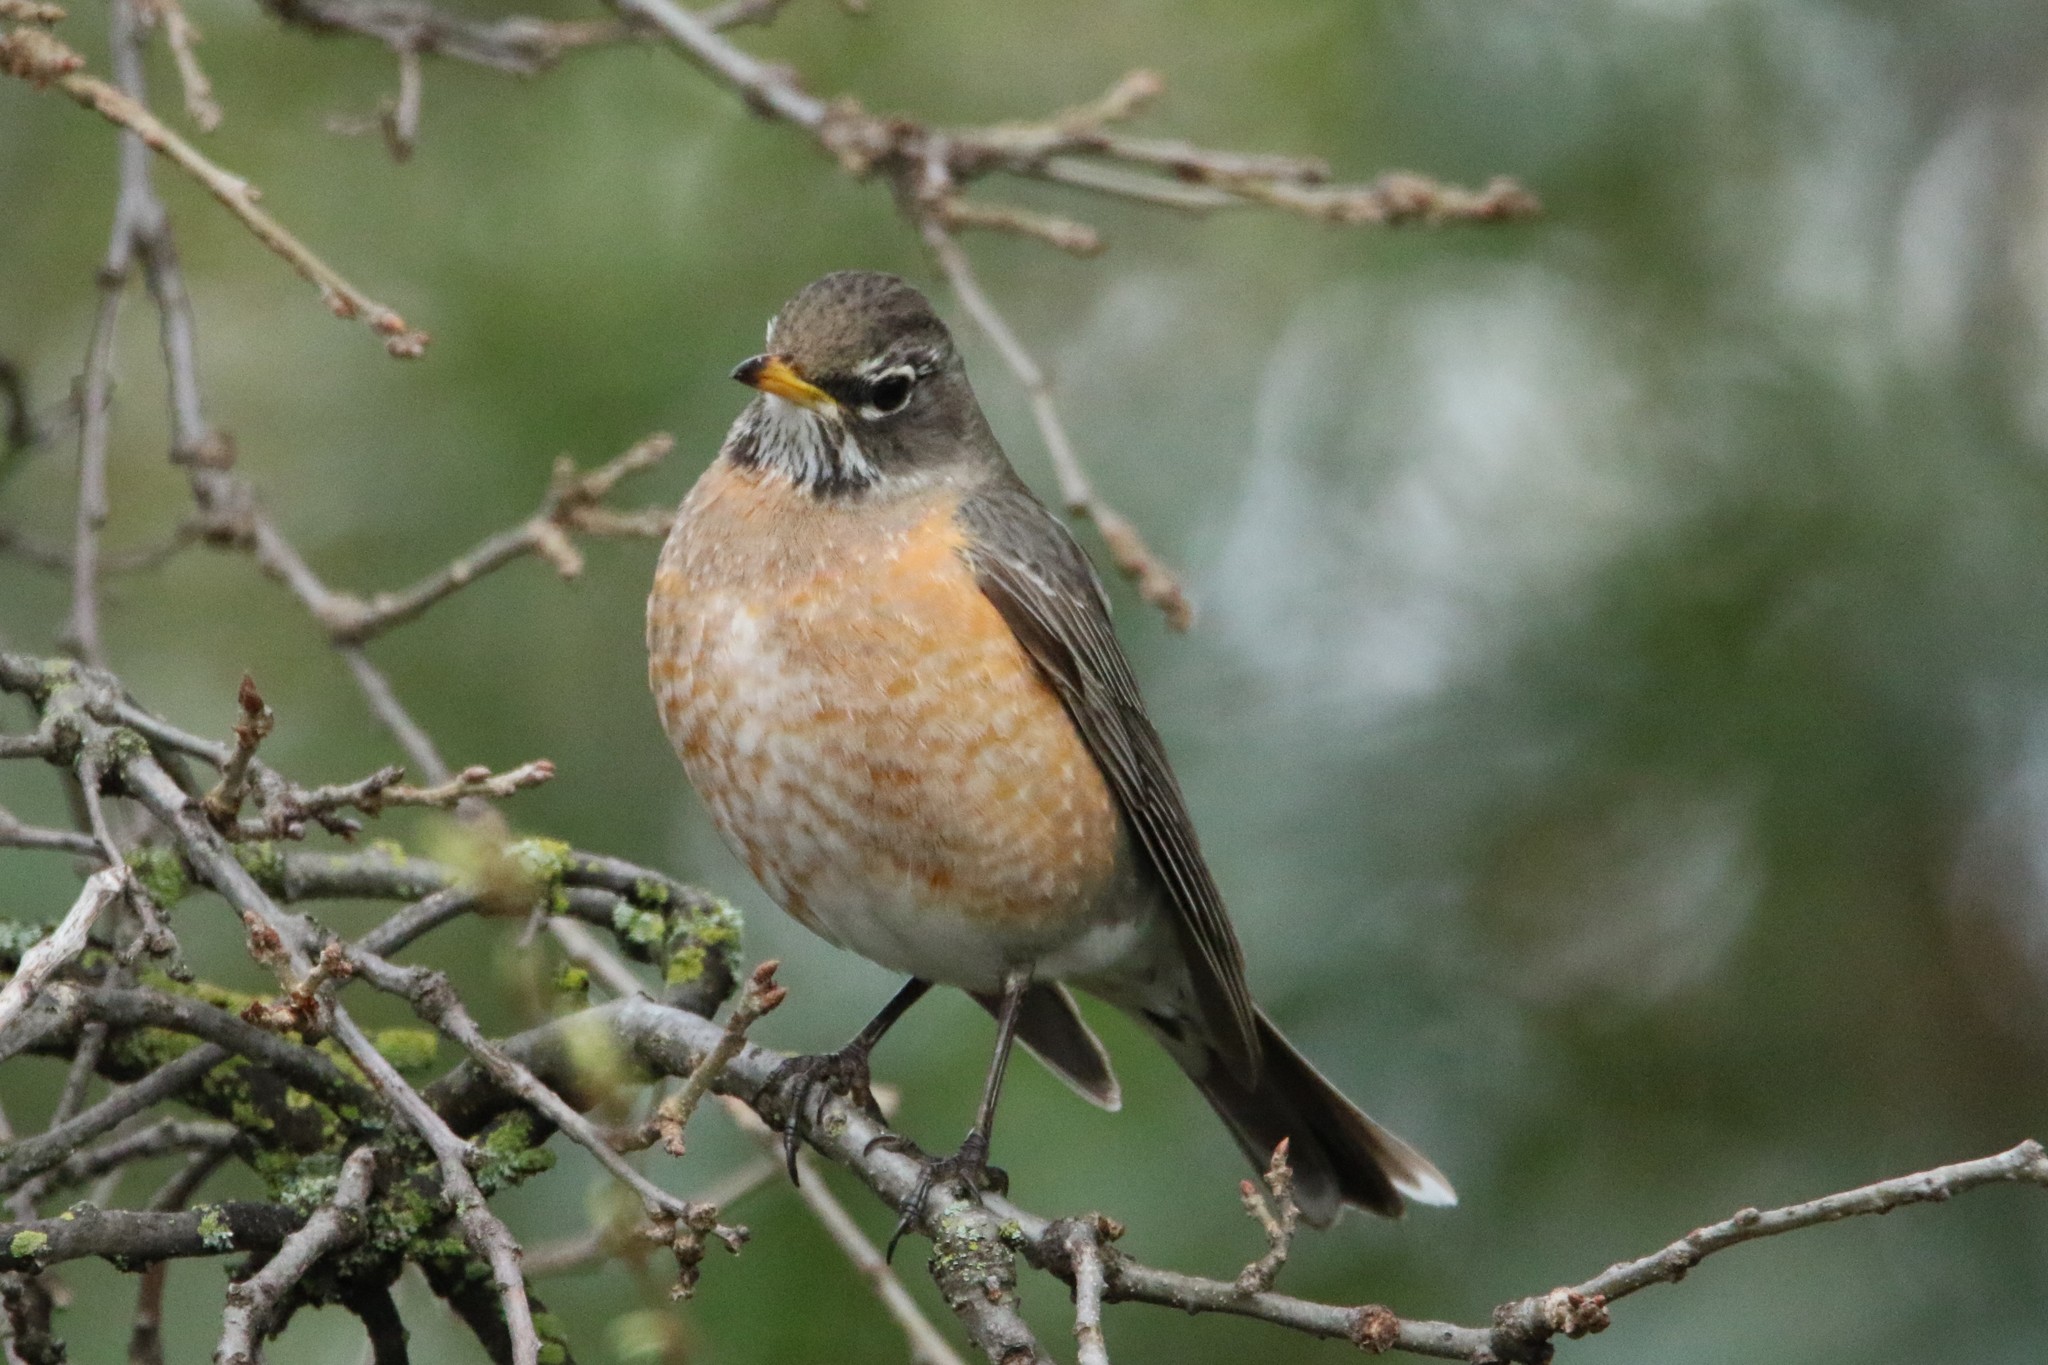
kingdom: Animalia
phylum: Chordata
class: Aves
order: Passeriformes
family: Turdidae
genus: Turdus
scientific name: Turdus migratorius
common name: American robin
